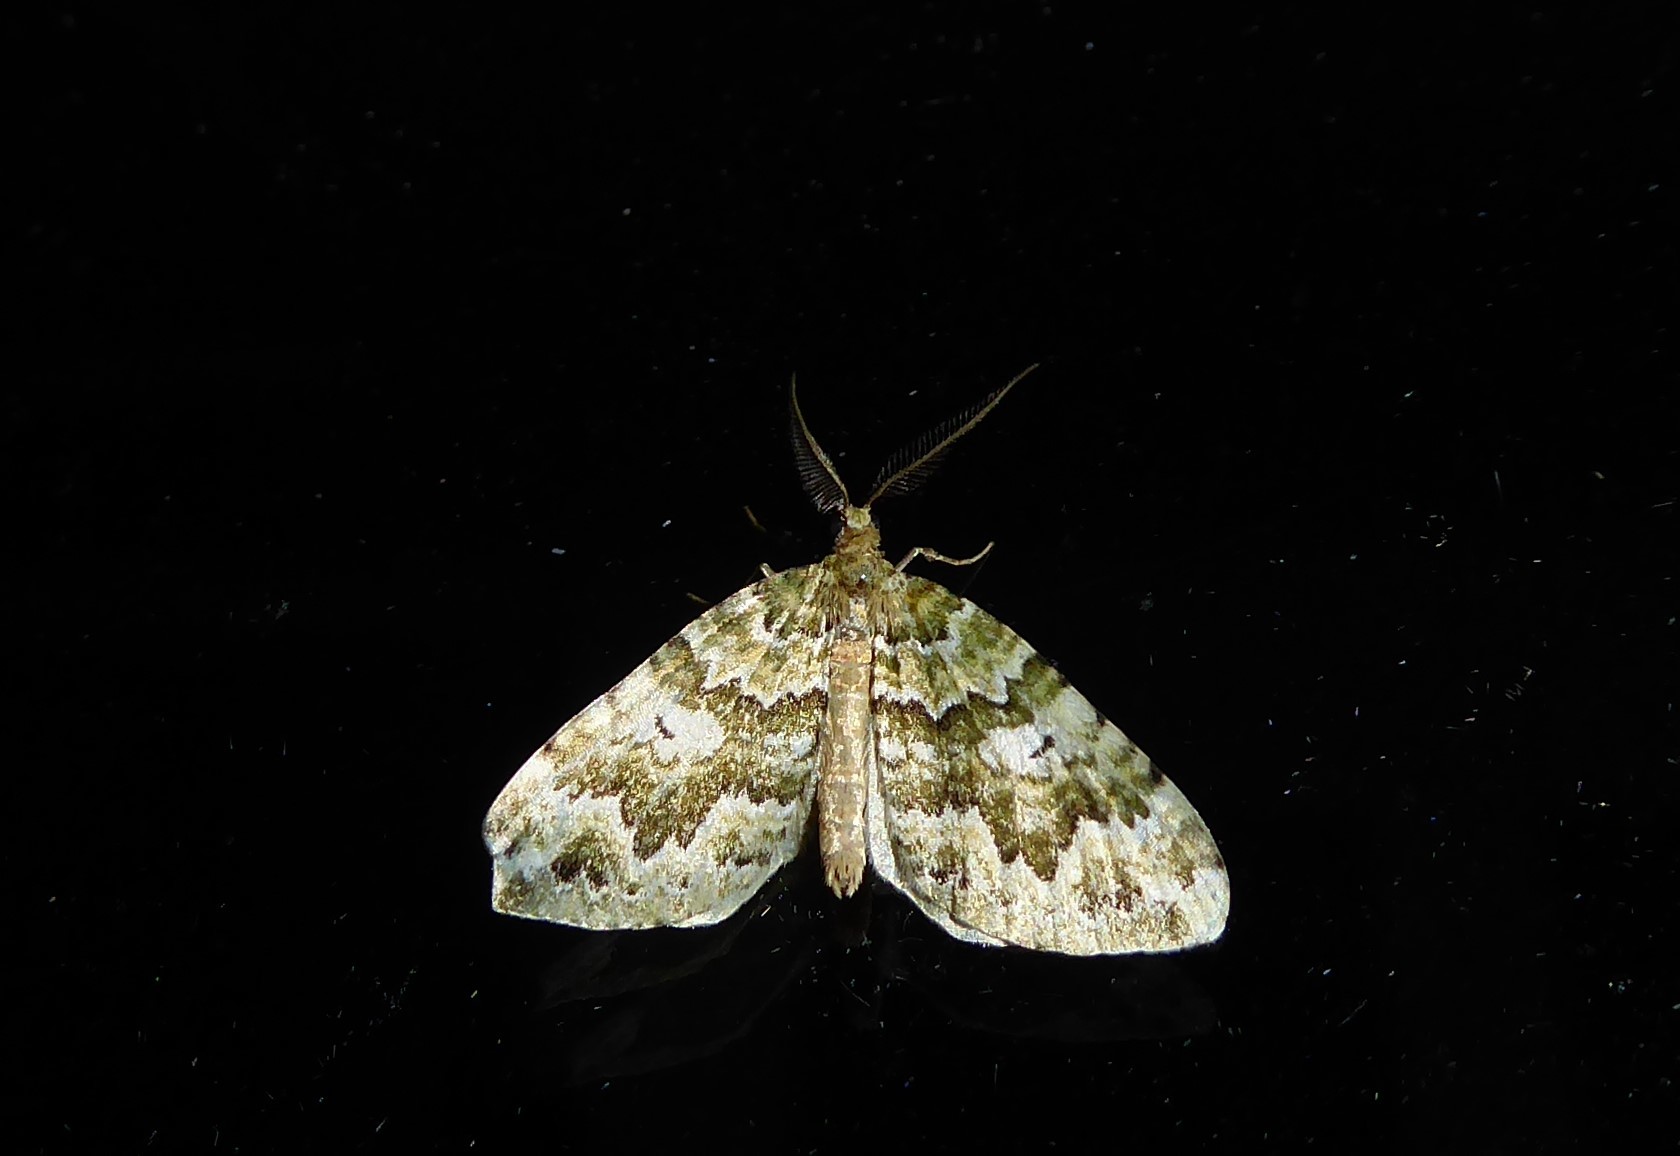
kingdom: Animalia
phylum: Arthropoda
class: Insecta
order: Lepidoptera
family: Geometridae
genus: Asaphodes
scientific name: Asaphodes beata
